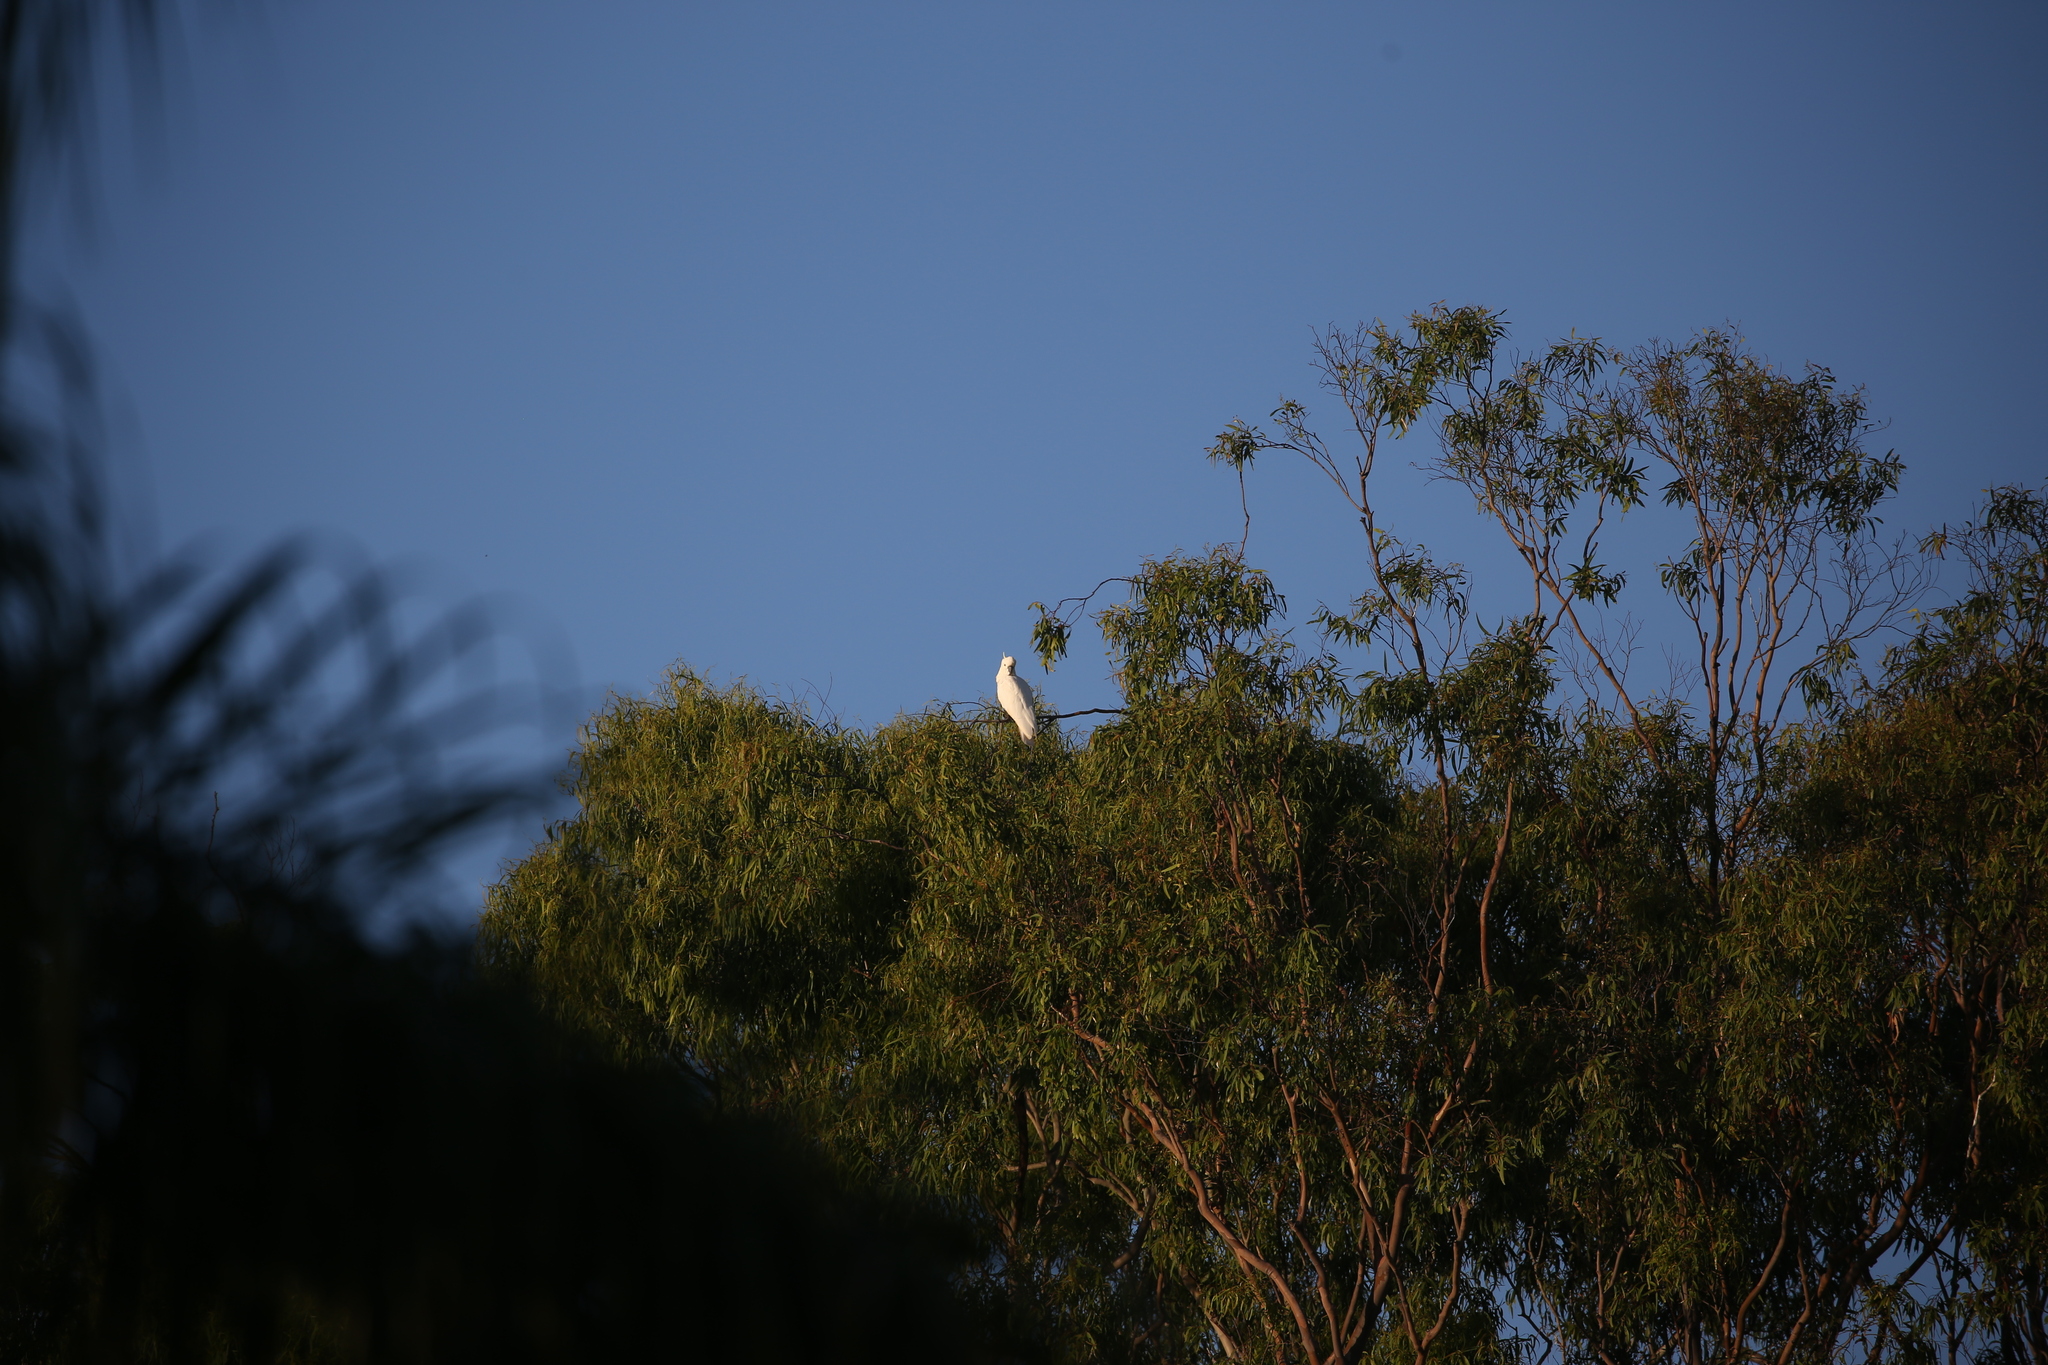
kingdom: Animalia
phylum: Chordata
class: Aves
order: Psittaciformes
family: Psittacidae
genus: Cacatua
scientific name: Cacatua galerita
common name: Sulphur-crested cockatoo
